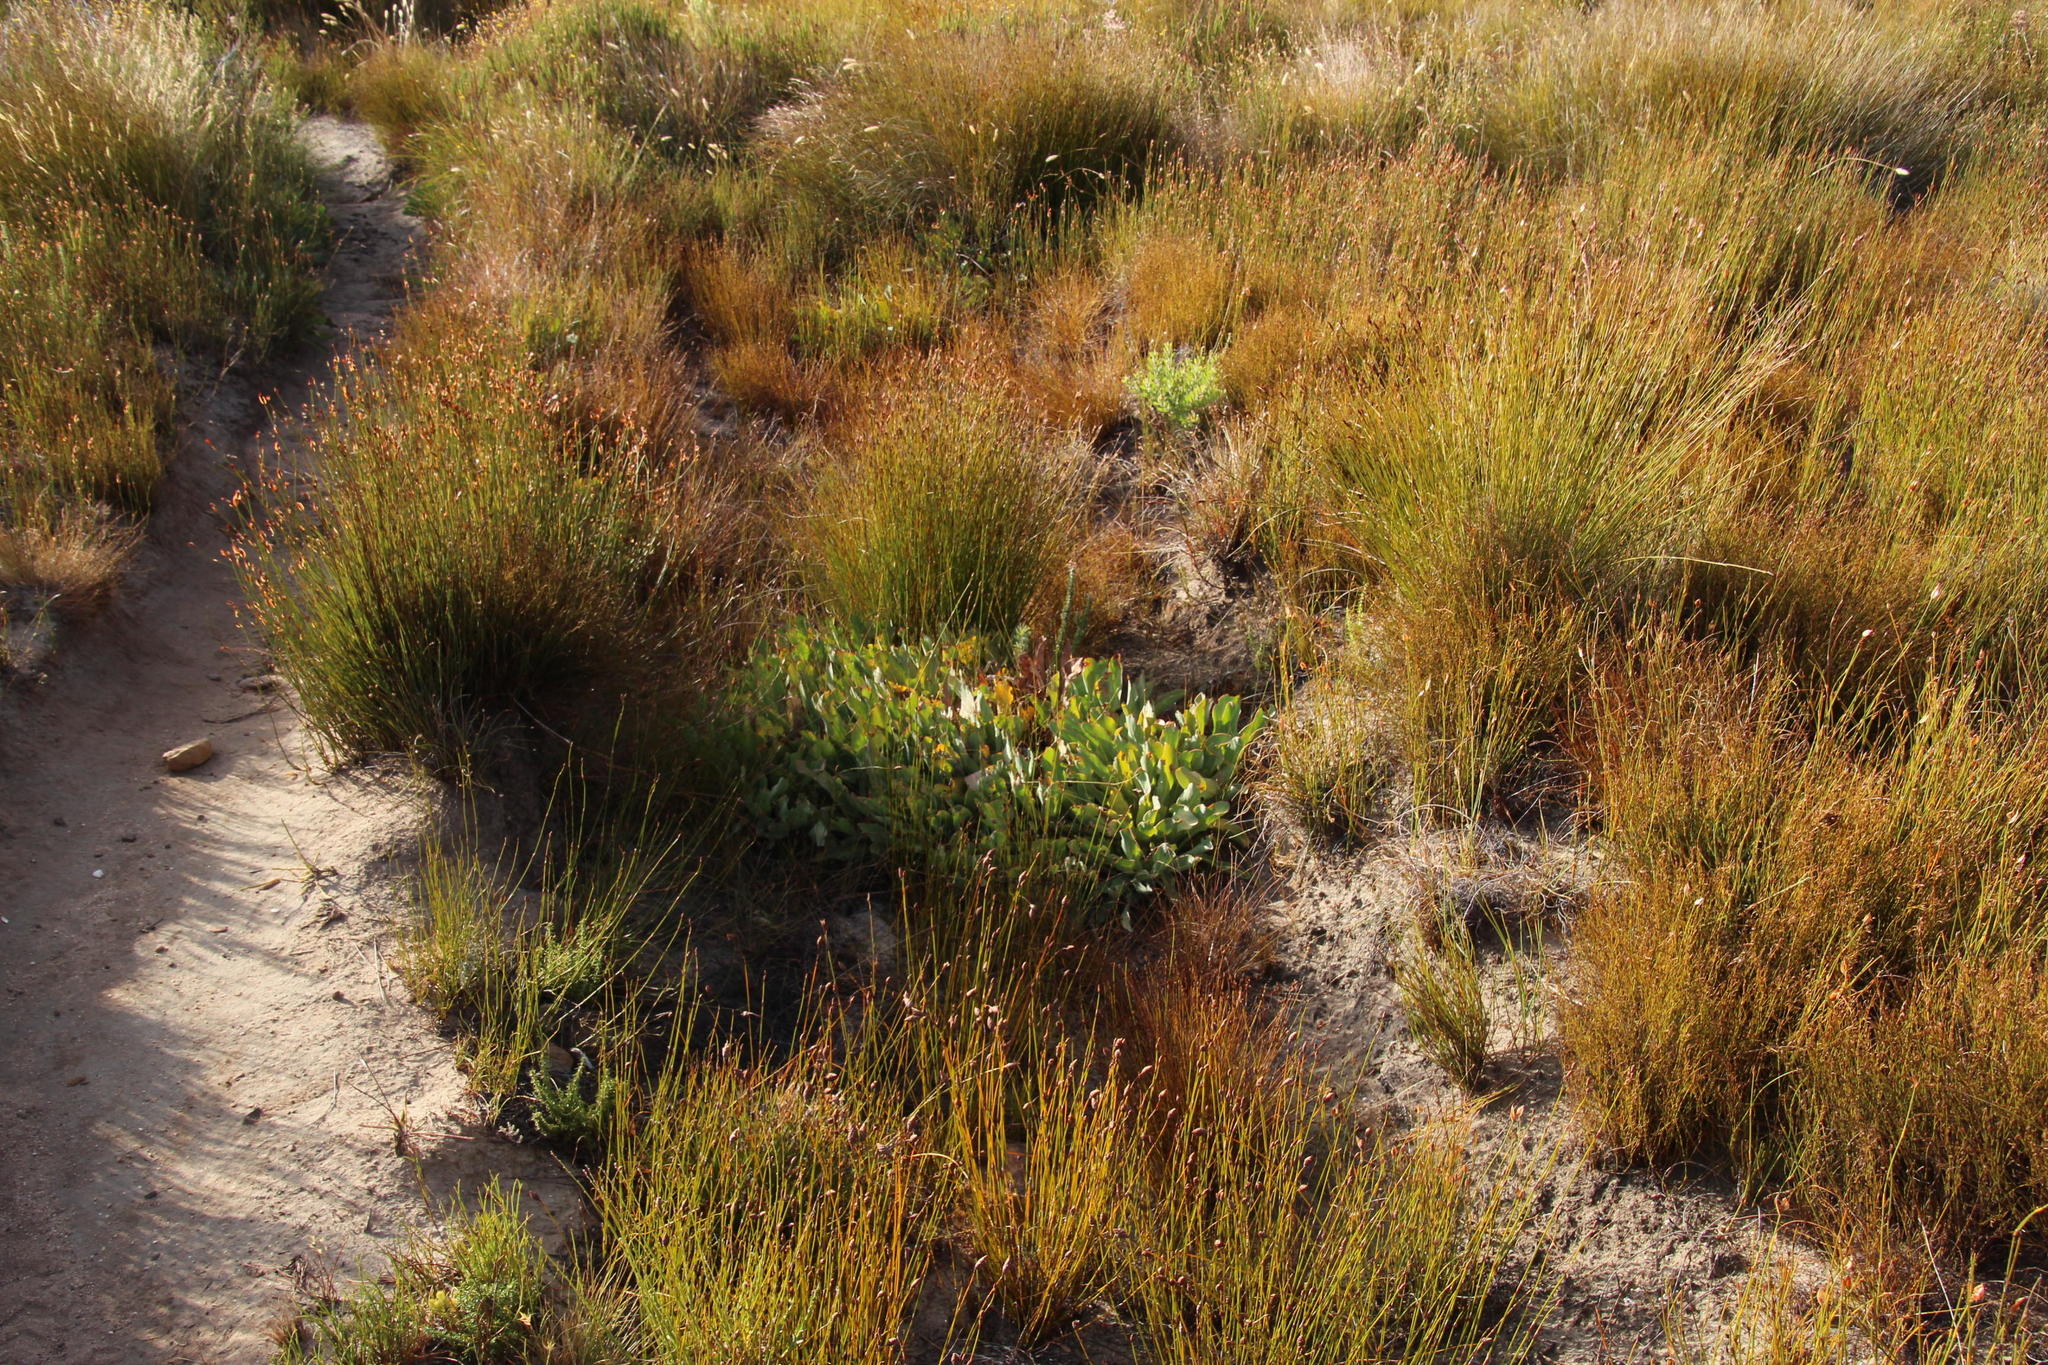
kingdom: Plantae
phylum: Tracheophyta
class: Magnoliopsida
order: Proteales
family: Proteaceae
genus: Protea
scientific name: Protea laevis
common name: Smooth-leaf sugarbush
